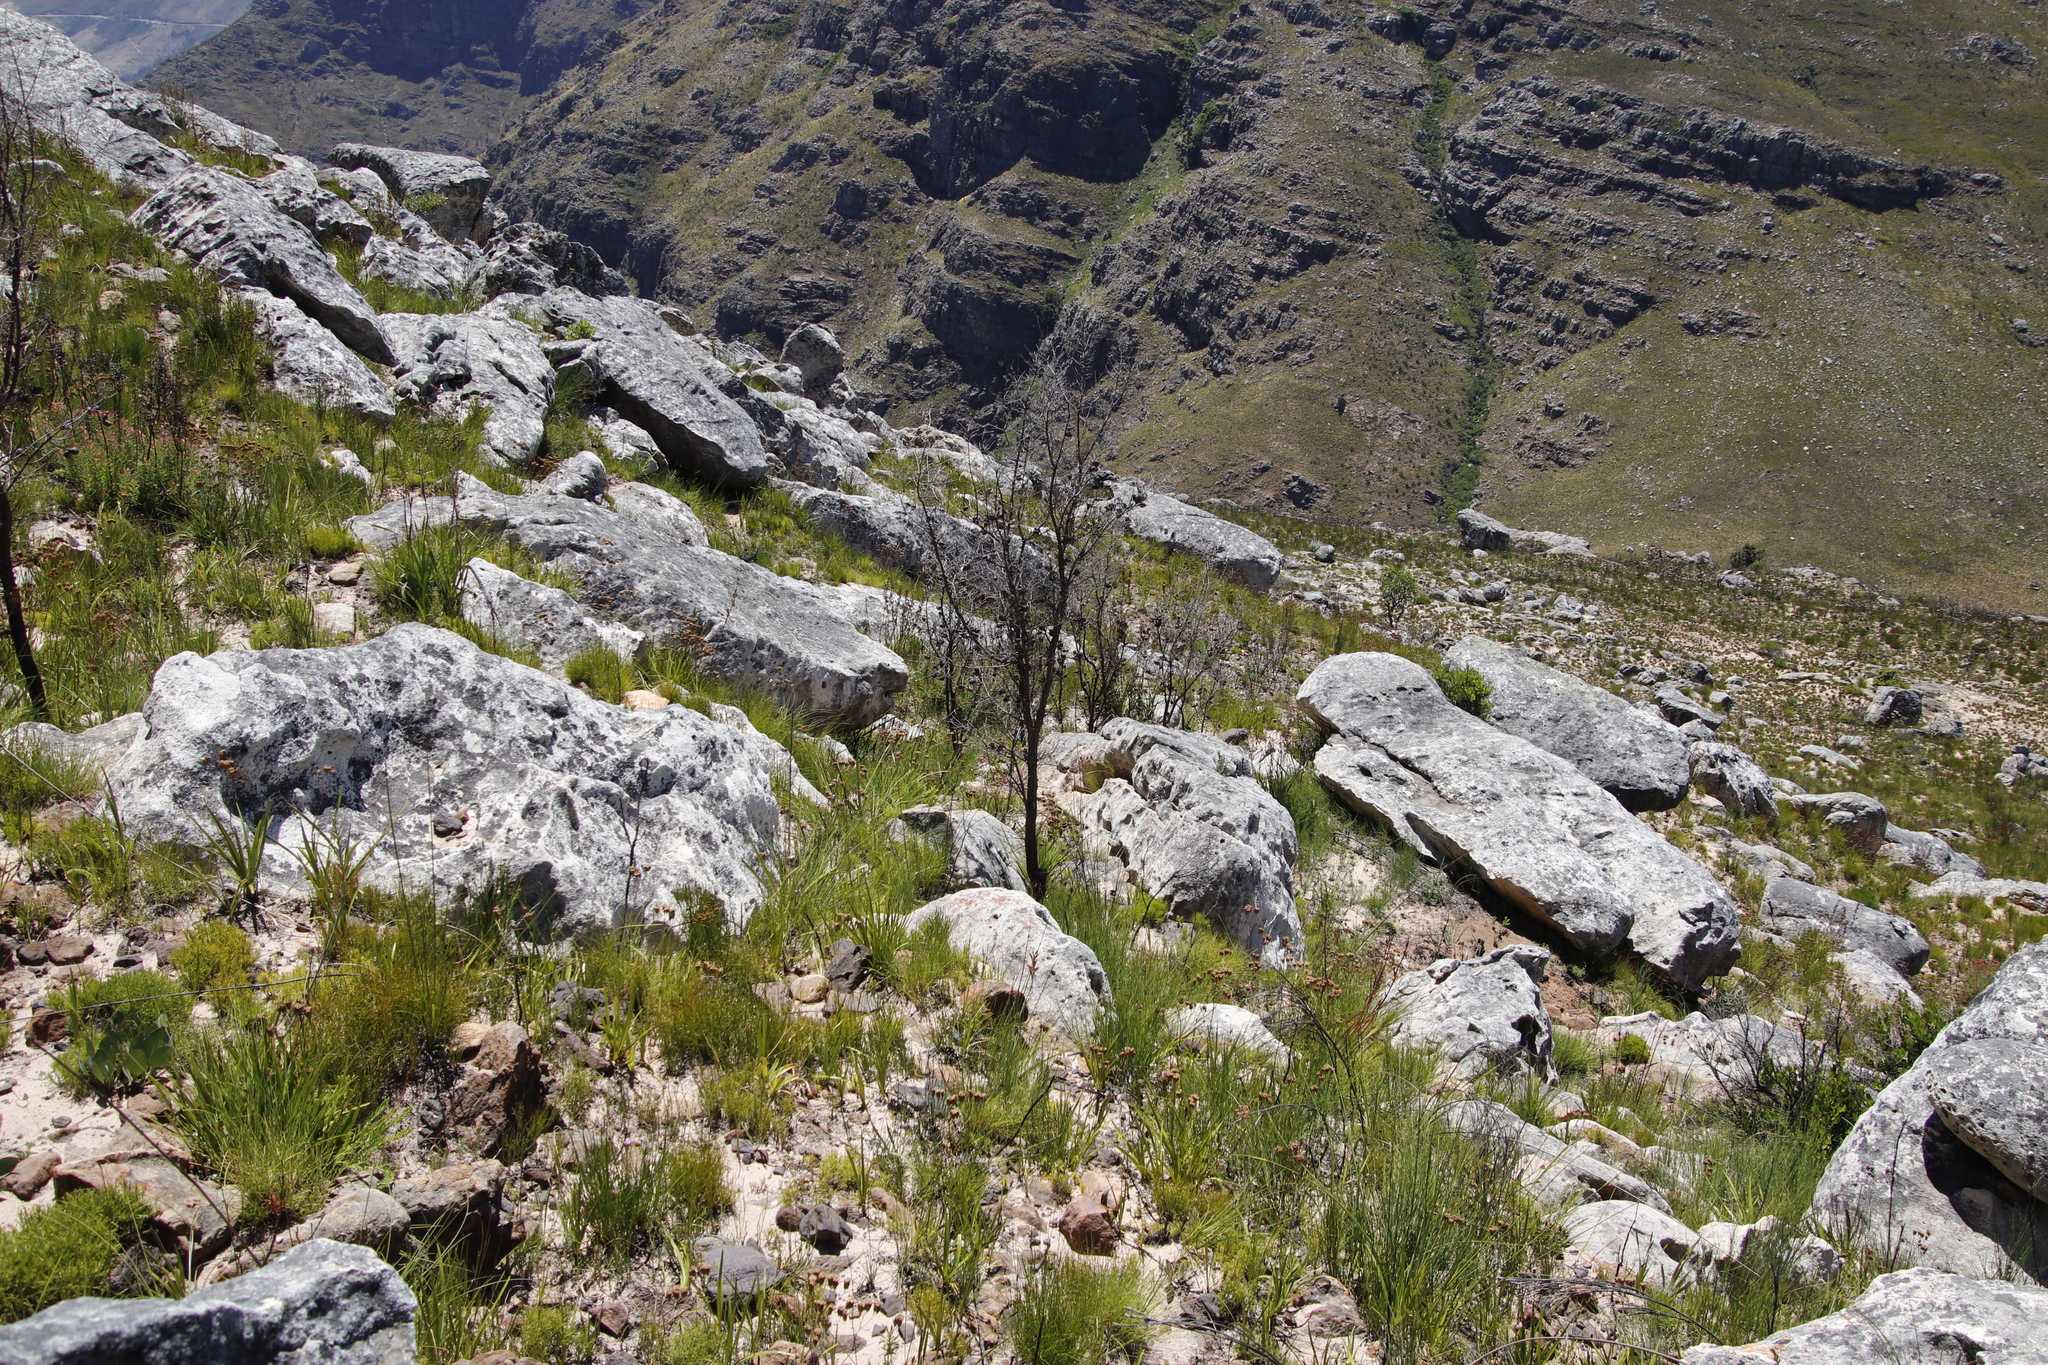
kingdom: Plantae
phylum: Tracheophyta
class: Magnoliopsida
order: Proteales
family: Proteaceae
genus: Hakea
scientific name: Hakea sericea
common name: Needle bush
